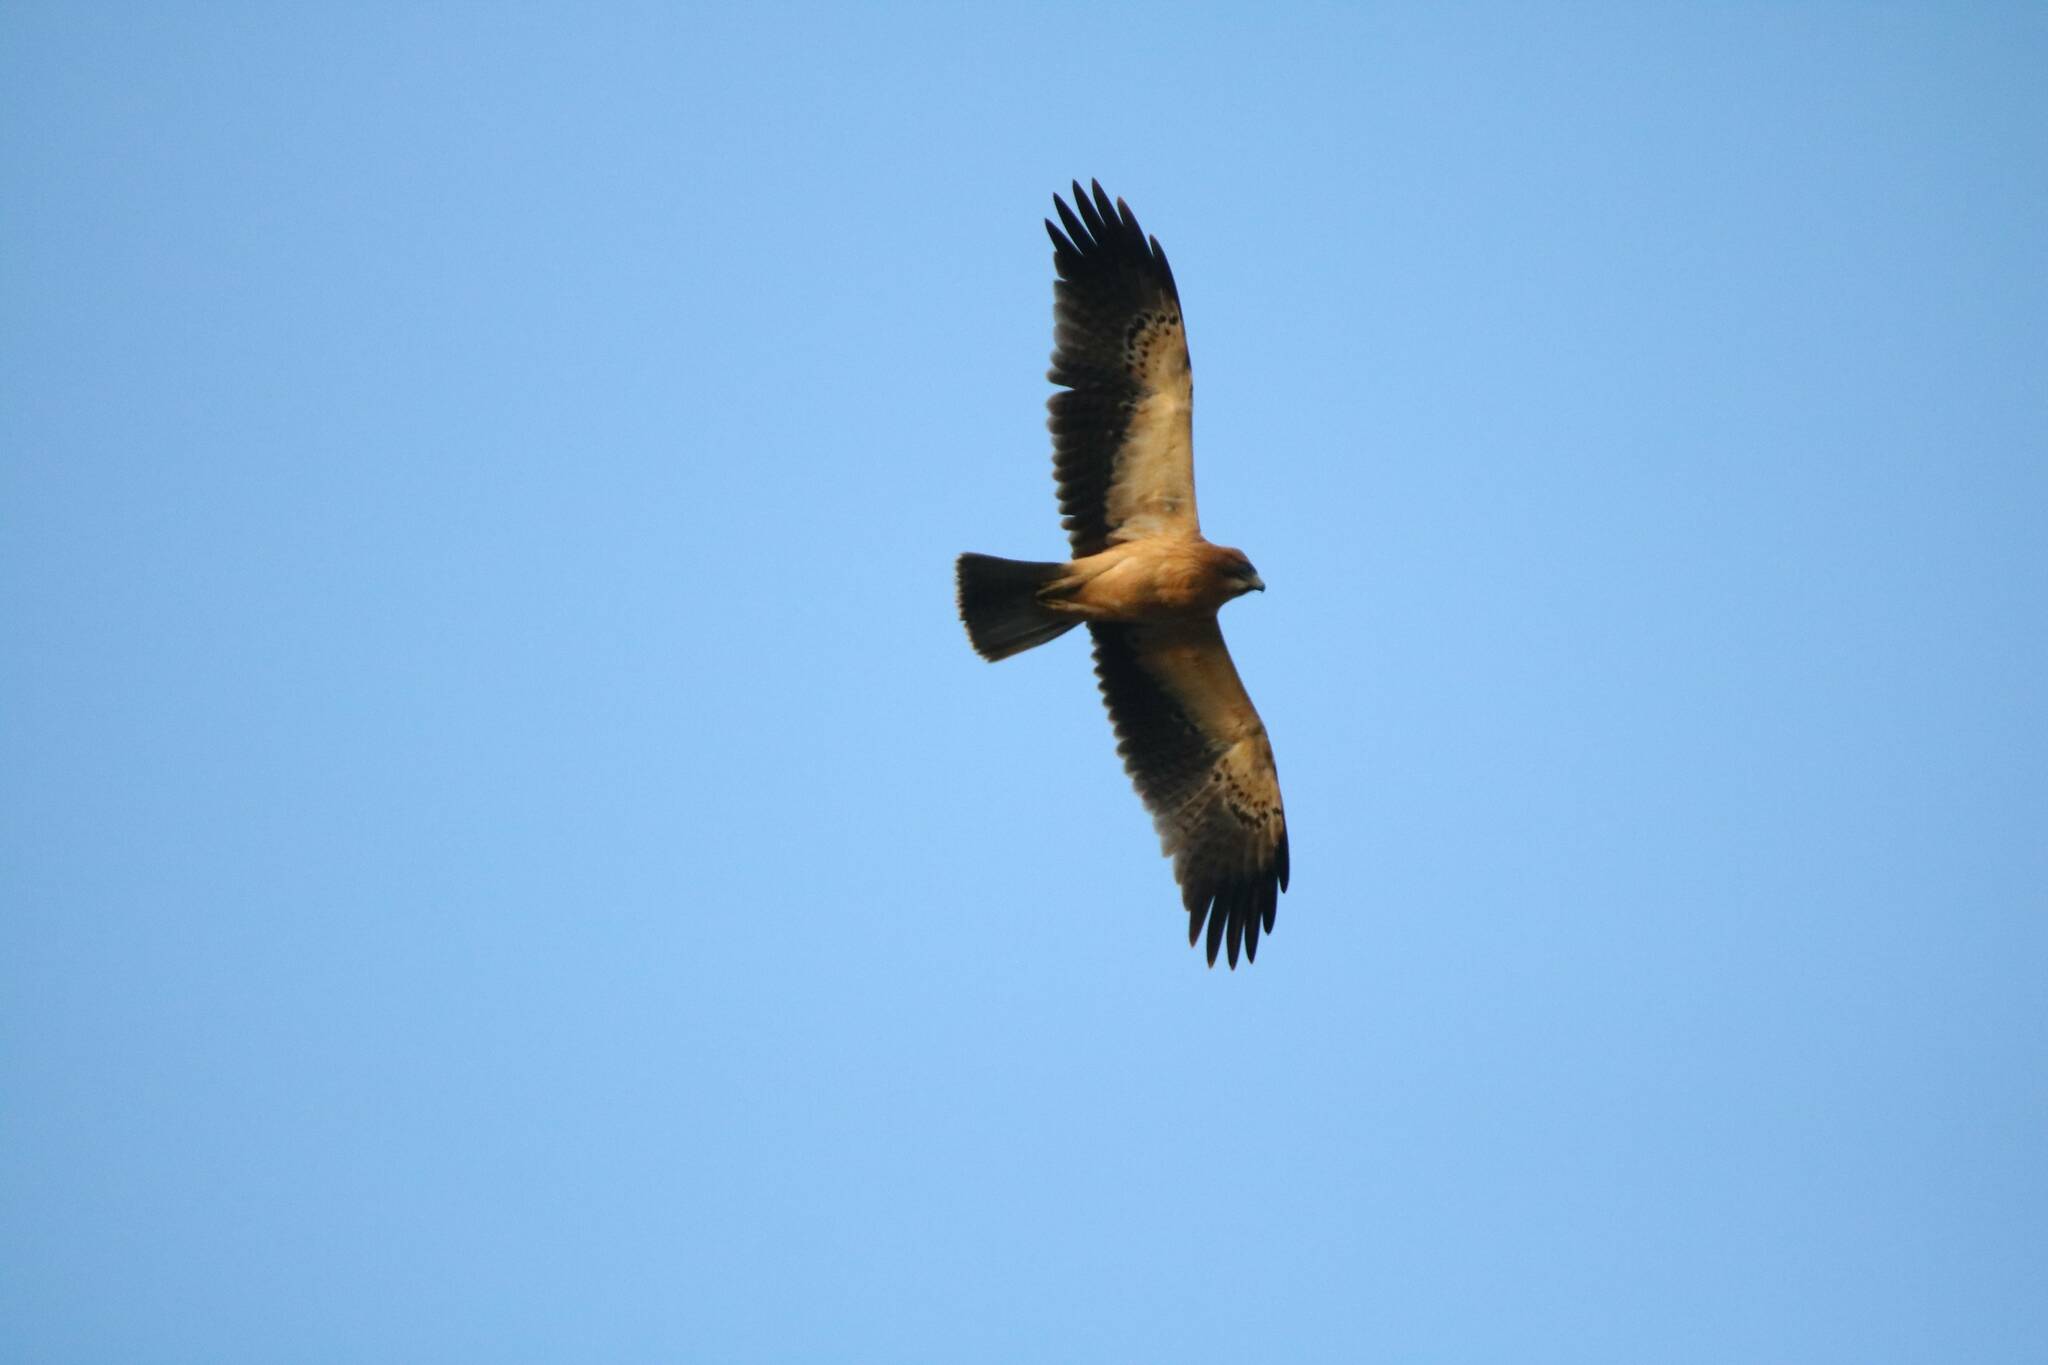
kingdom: Animalia
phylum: Chordata
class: Aves
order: Accipitriformes
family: Accipitridae
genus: Hieraaetus
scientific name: Hieraaetus pennatus
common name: Booted eagle
